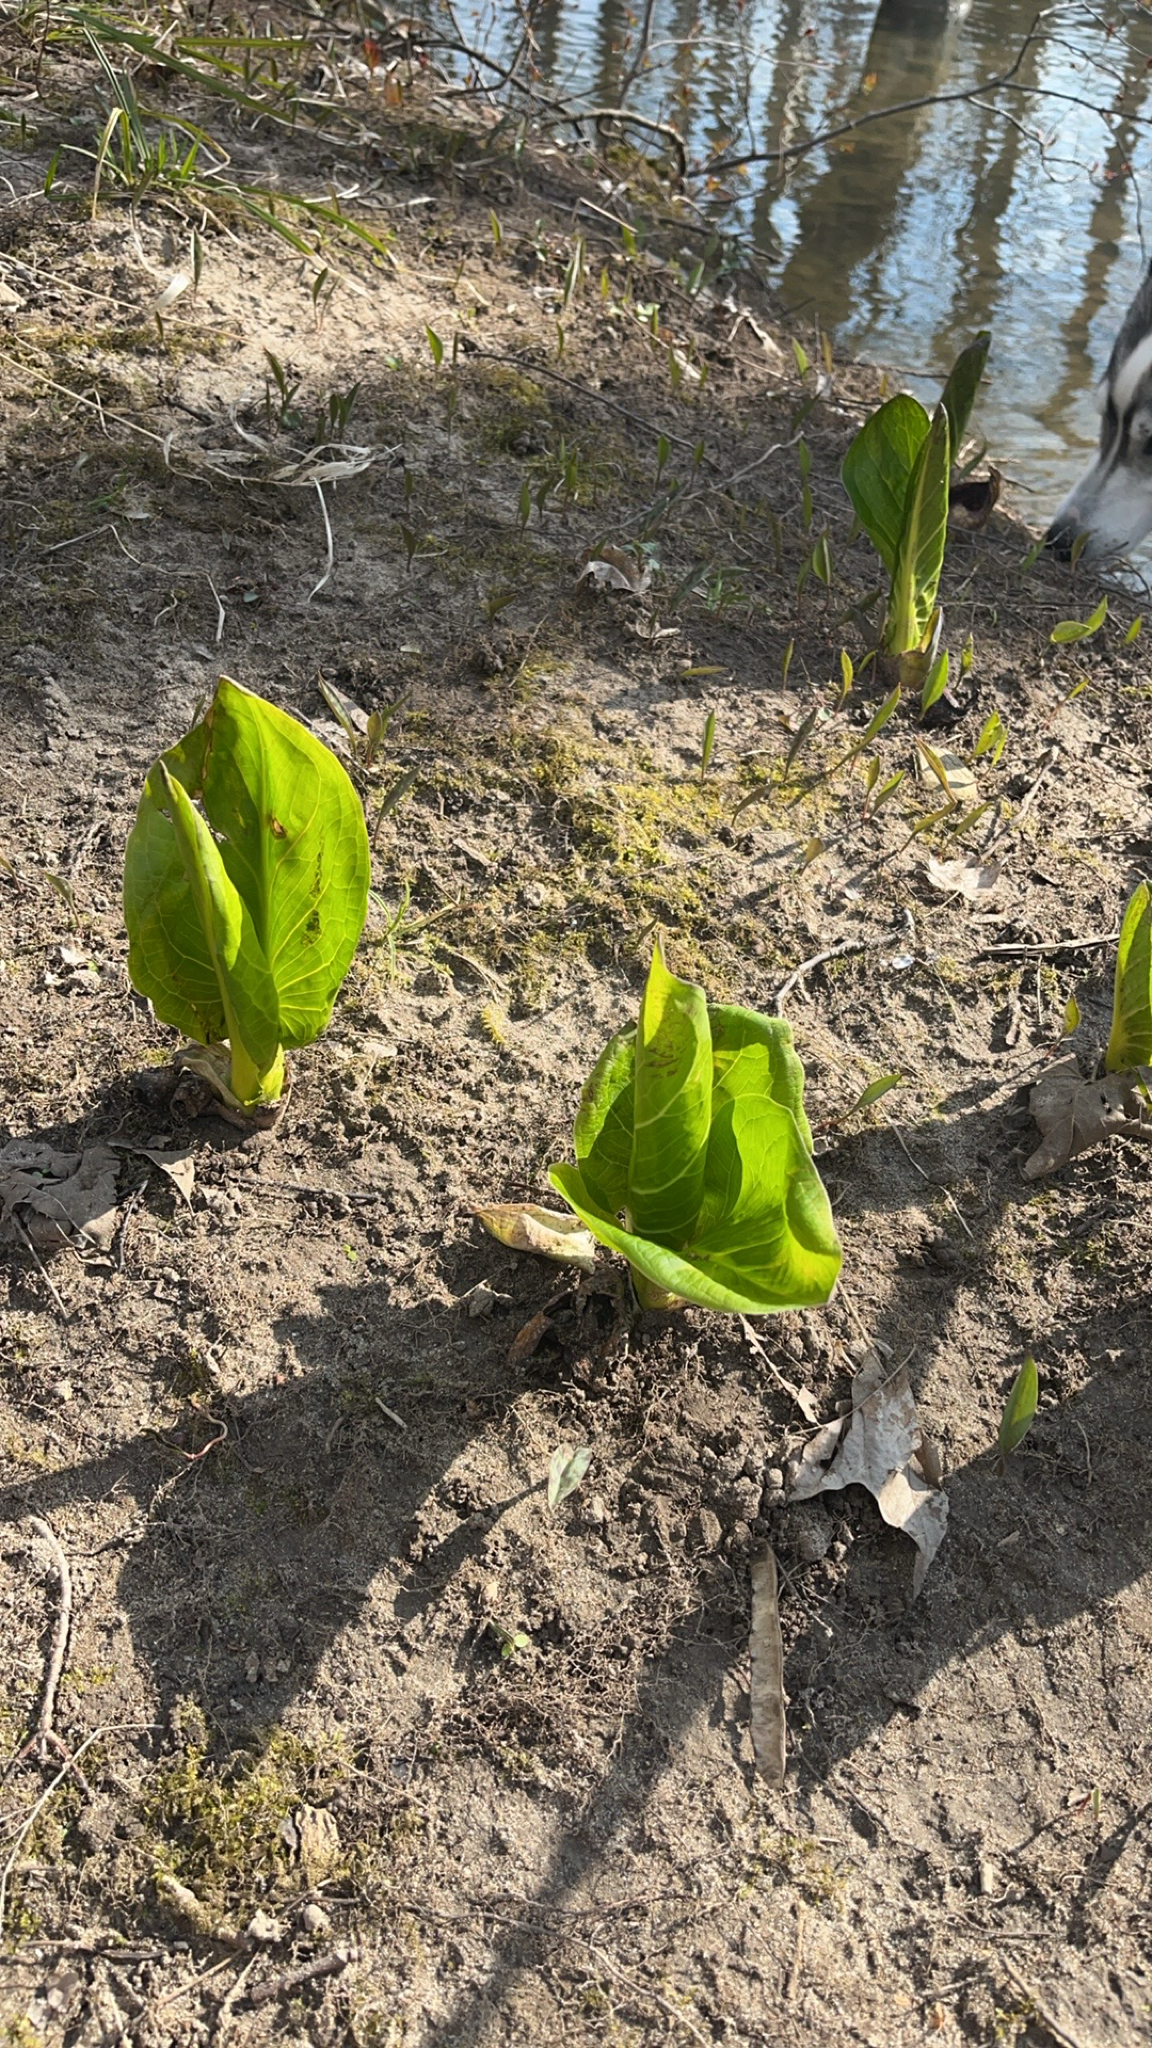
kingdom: Plantae
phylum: Tracheophyta
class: Liliopsida
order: Alismatales
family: Araceae
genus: Symplocarpus
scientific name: Symplocarpus foetidus
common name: Eastern skunk cabbage
